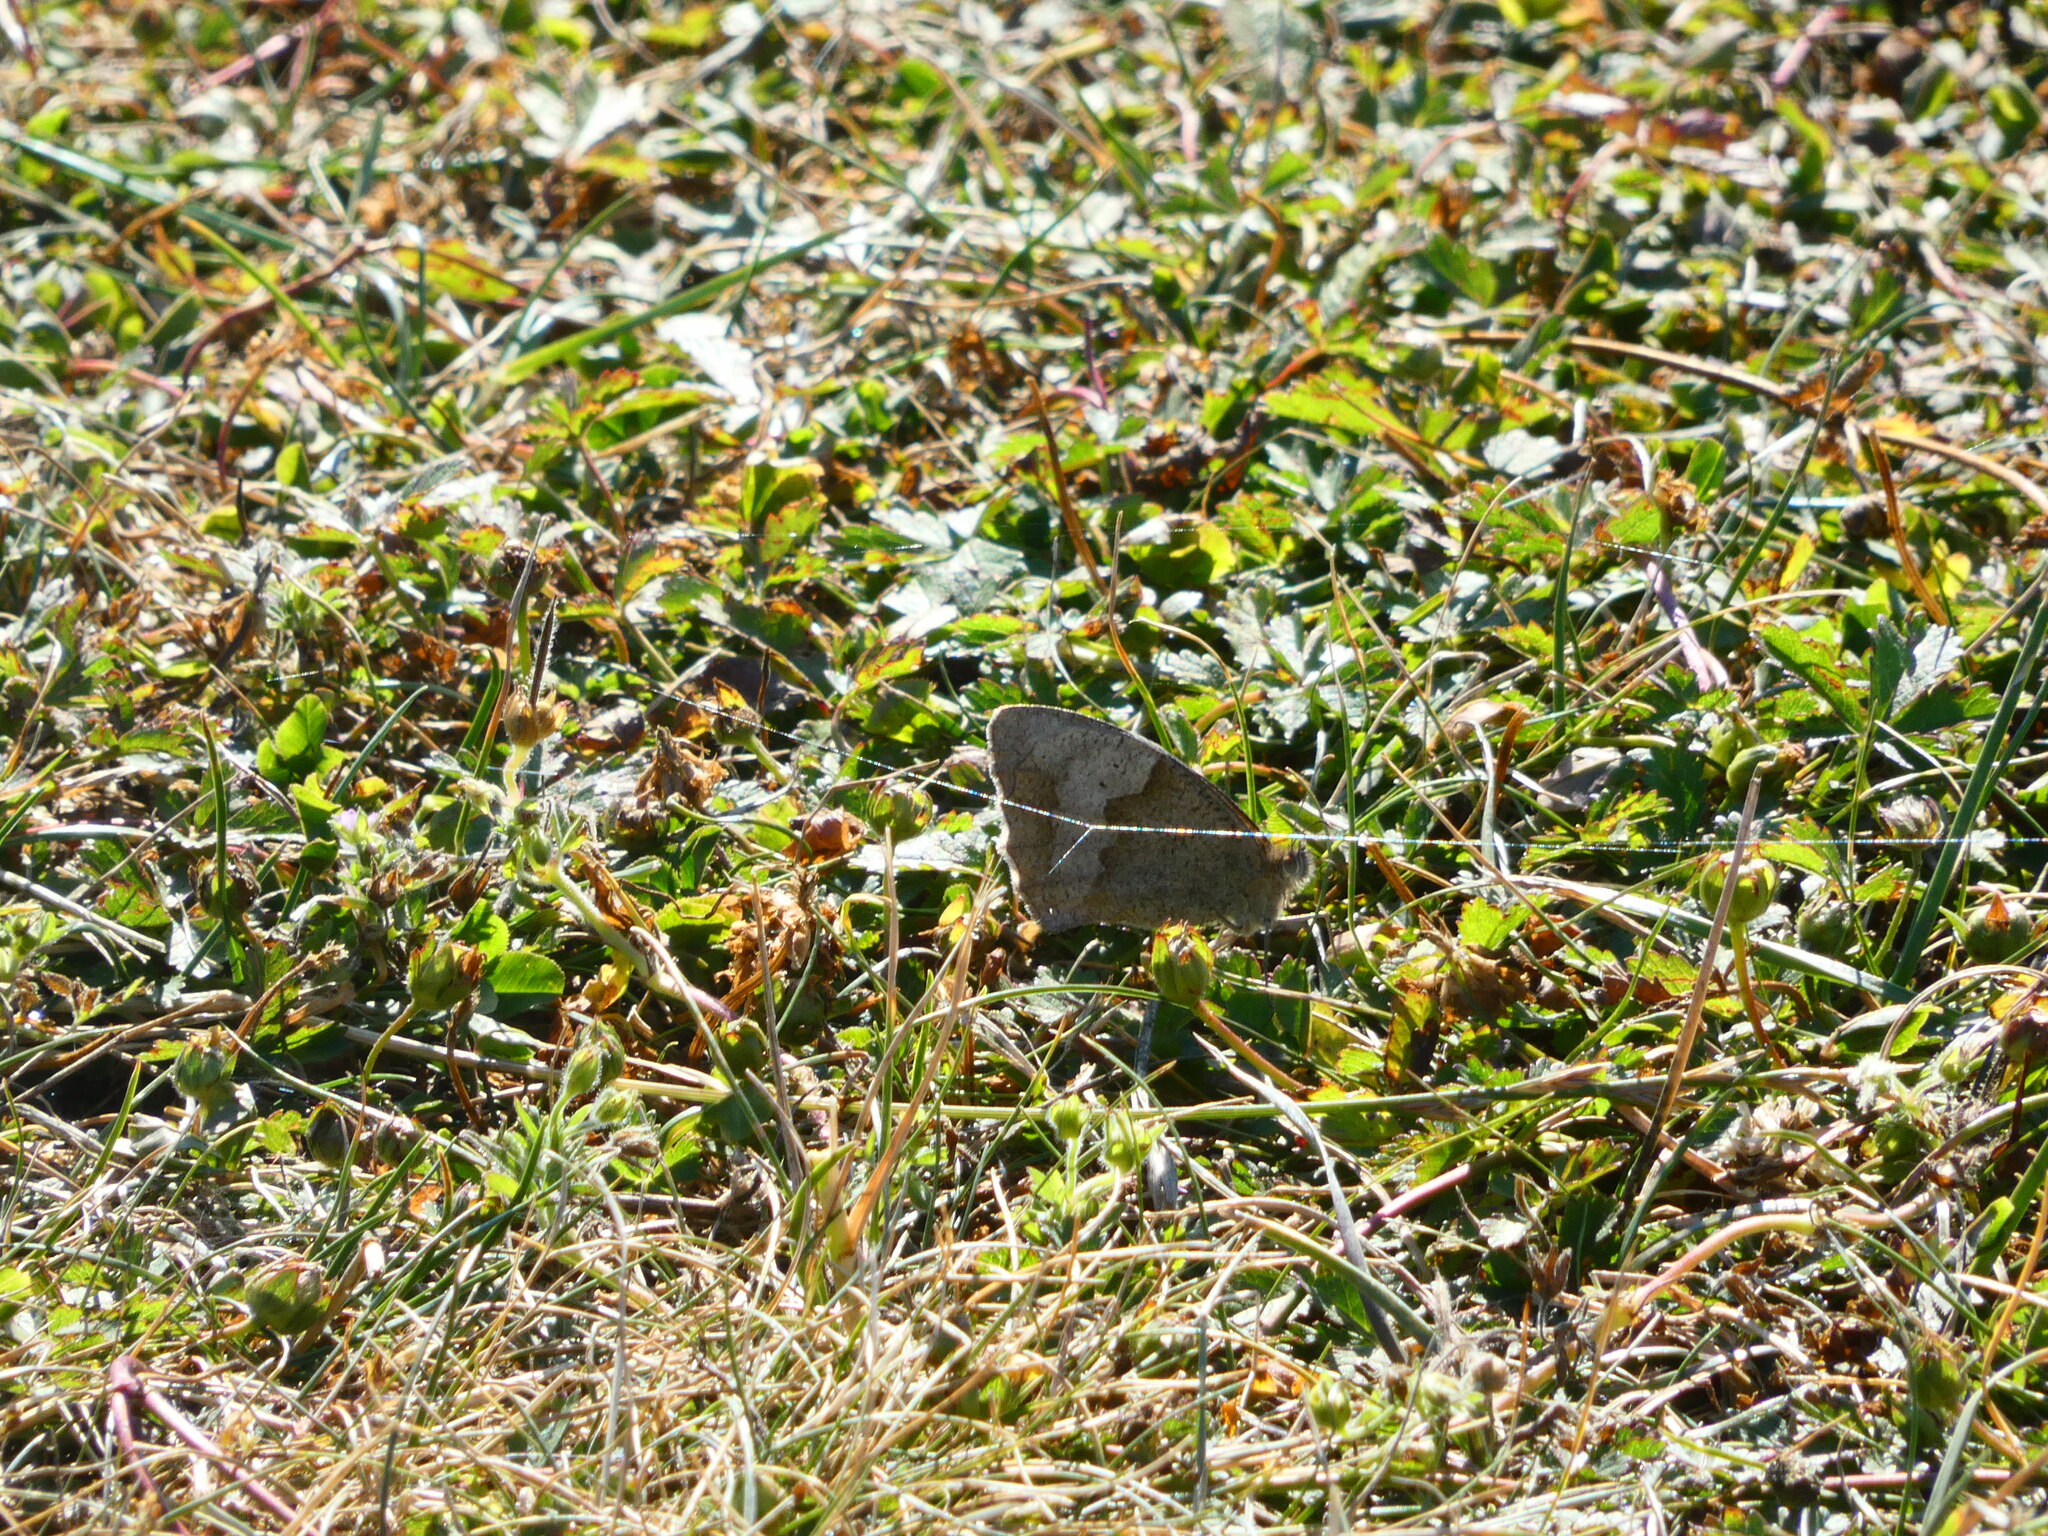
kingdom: Animalia
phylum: Arthropoda
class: Insecta
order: Lepidoptera
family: Nymphalidae
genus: Maniola
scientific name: Maniola jurtina
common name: Meadow brown
